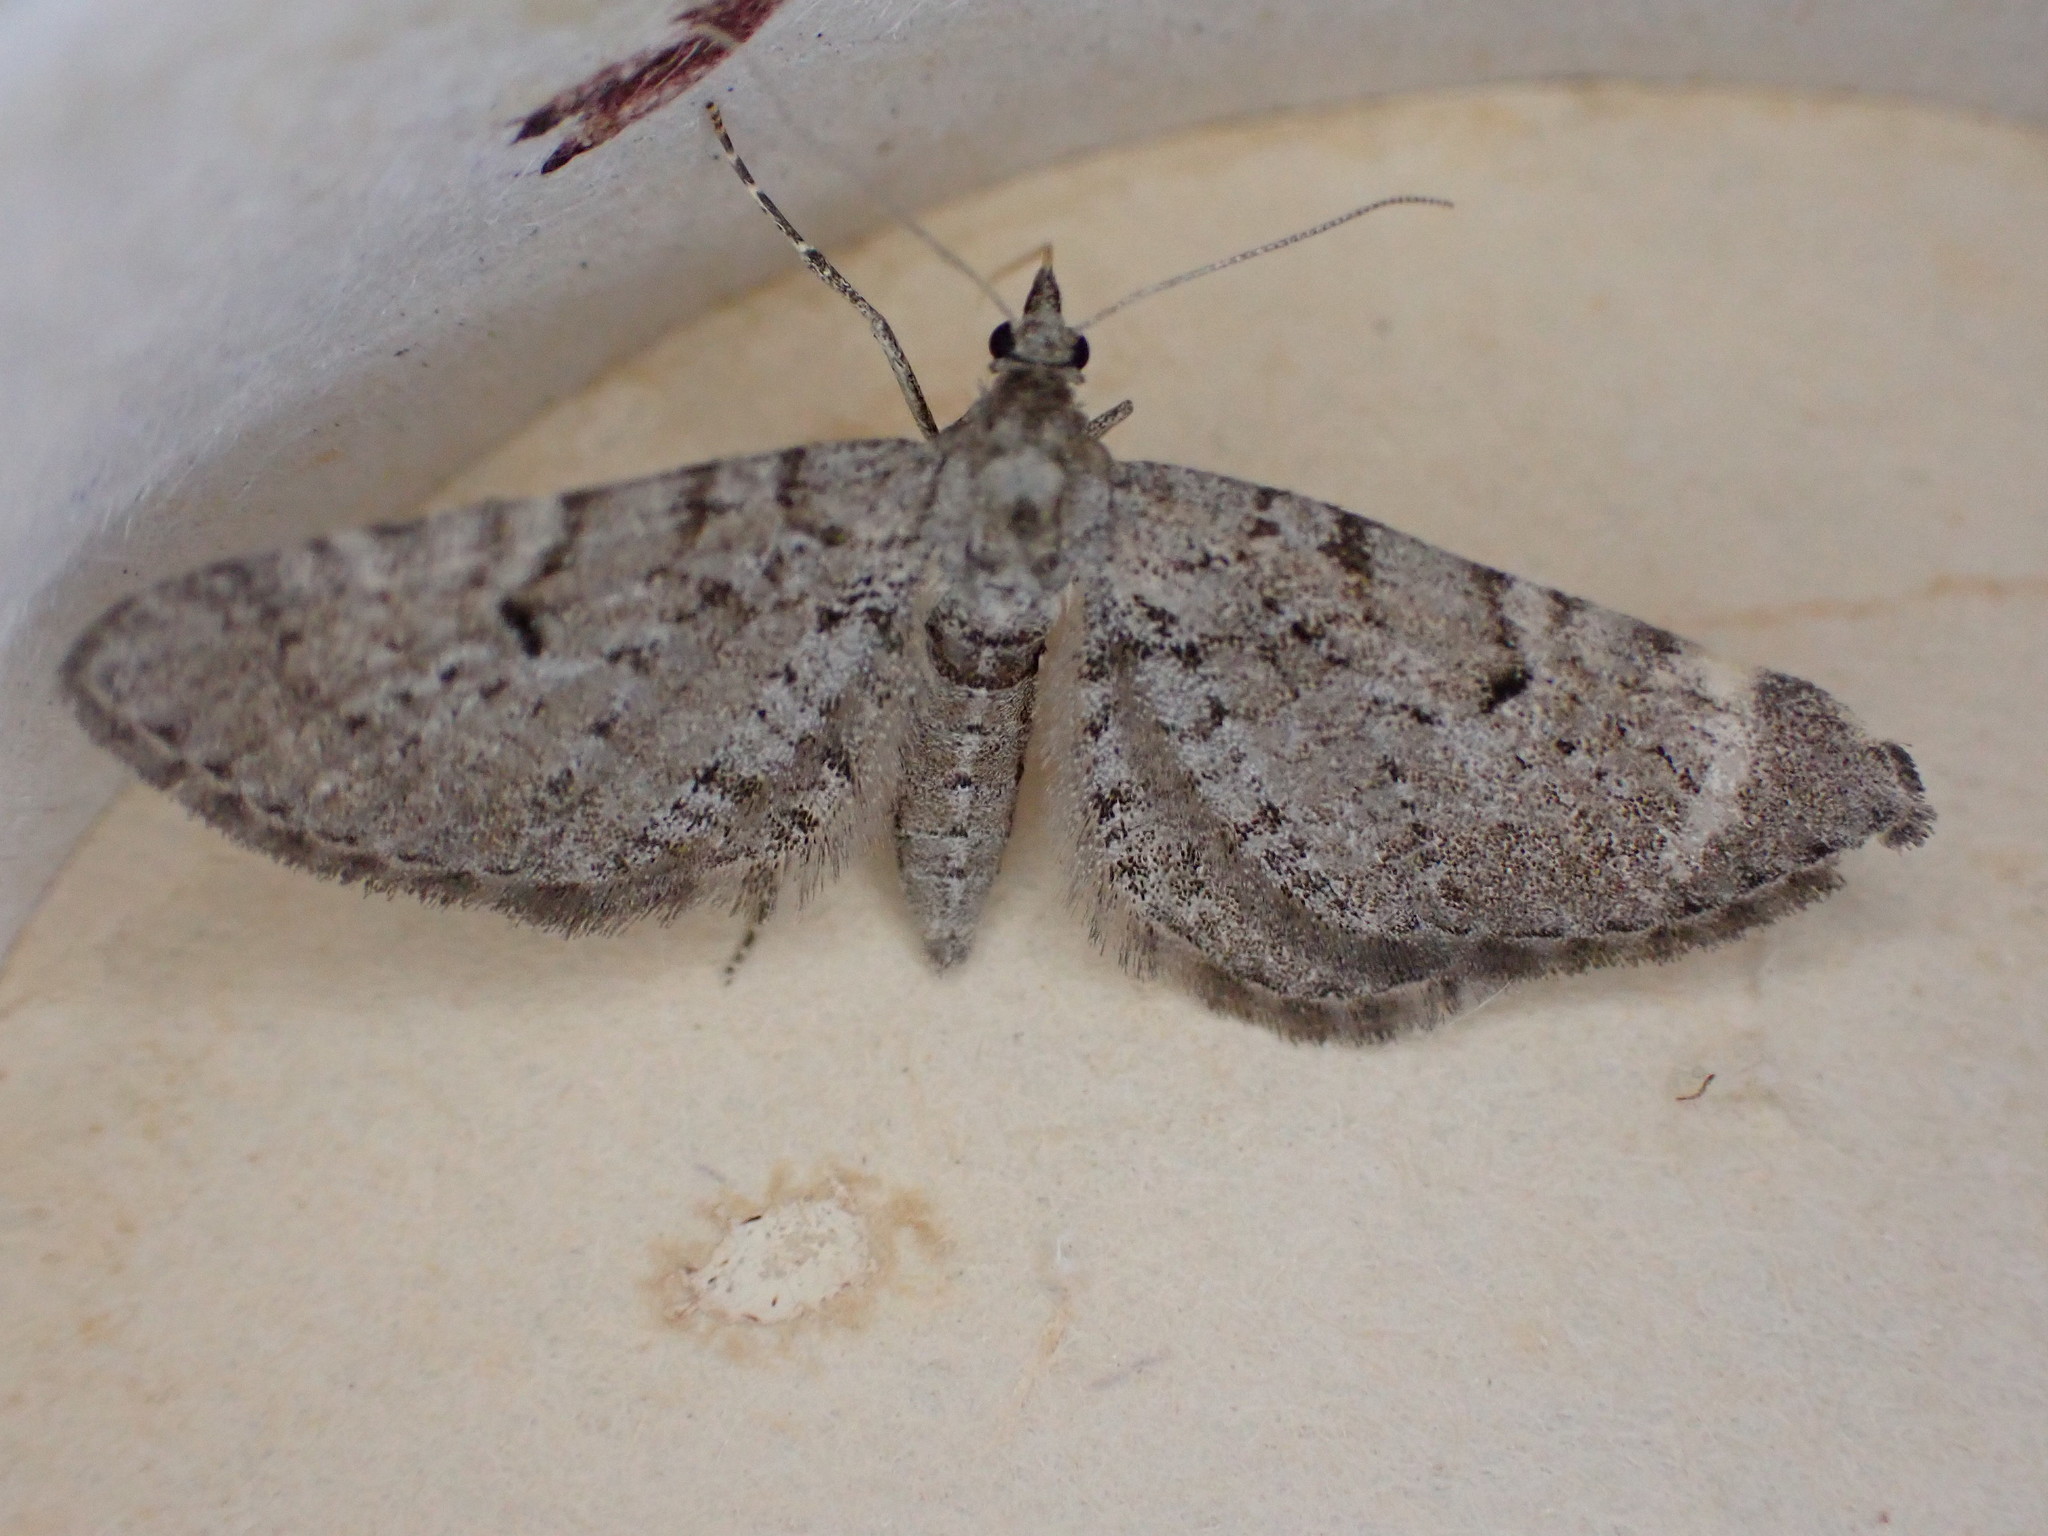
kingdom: Animalia
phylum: Arthropoda
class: Insecta
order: Lepidoptera
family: Geometridae
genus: Eupithecia
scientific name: Eupithecia intricata
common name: Freyers pug
